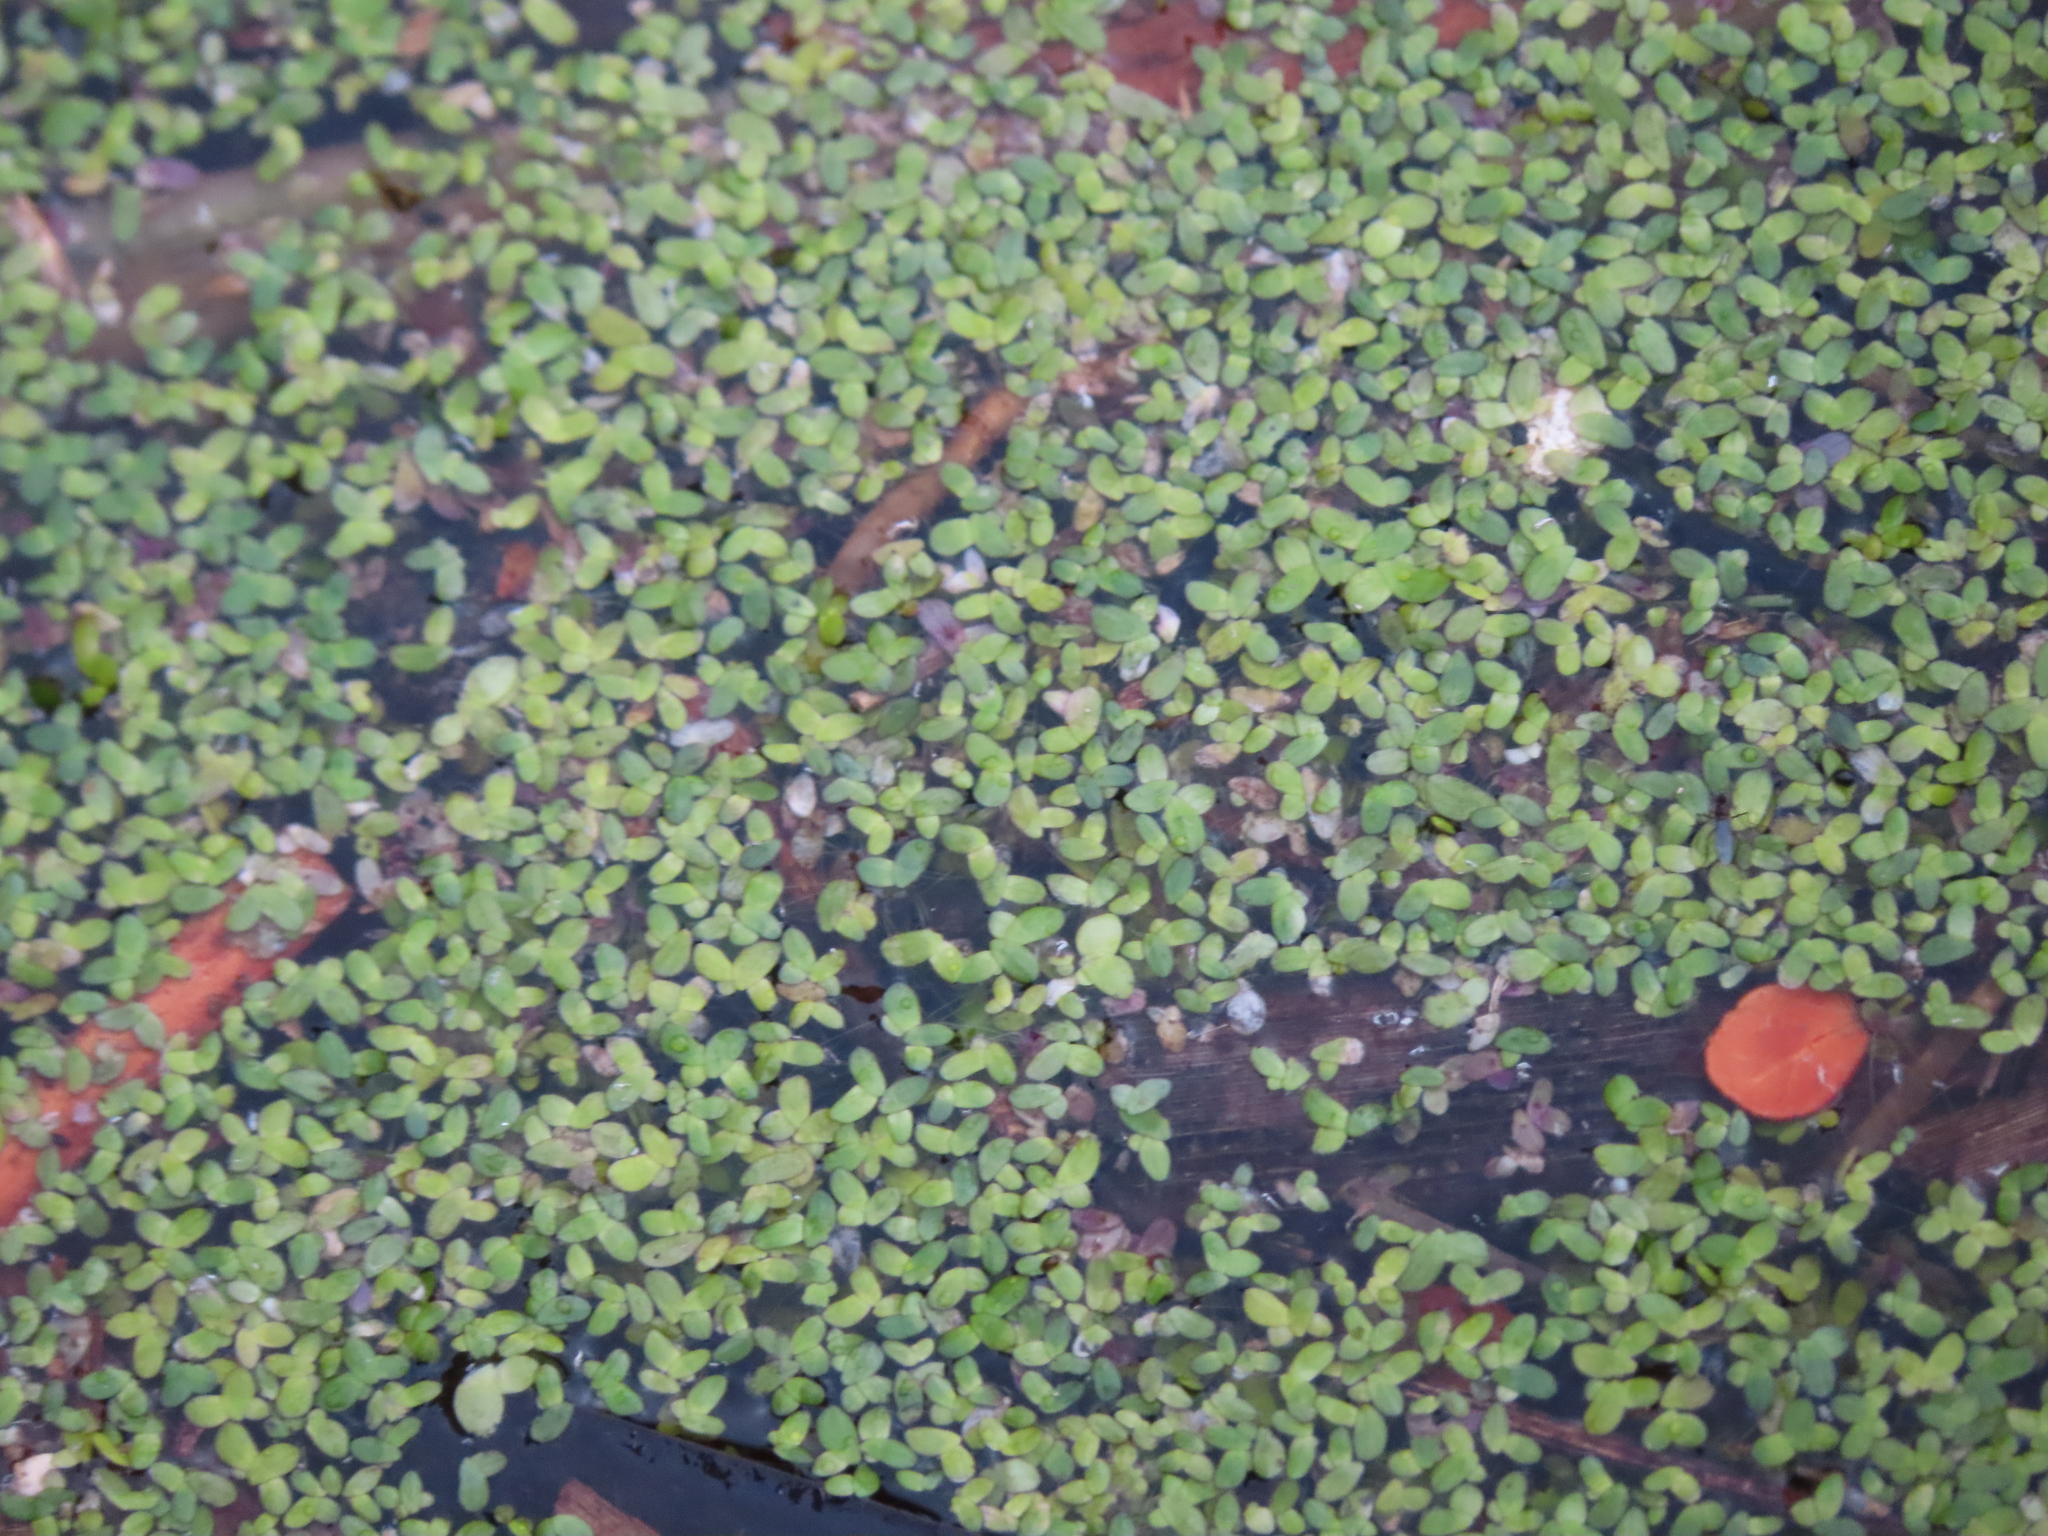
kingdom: Plantae
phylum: Tracheophyta
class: Liliopsida
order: Alismatales
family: Araceae
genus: Lemna
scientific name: Lemna minor
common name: Common duckweed
